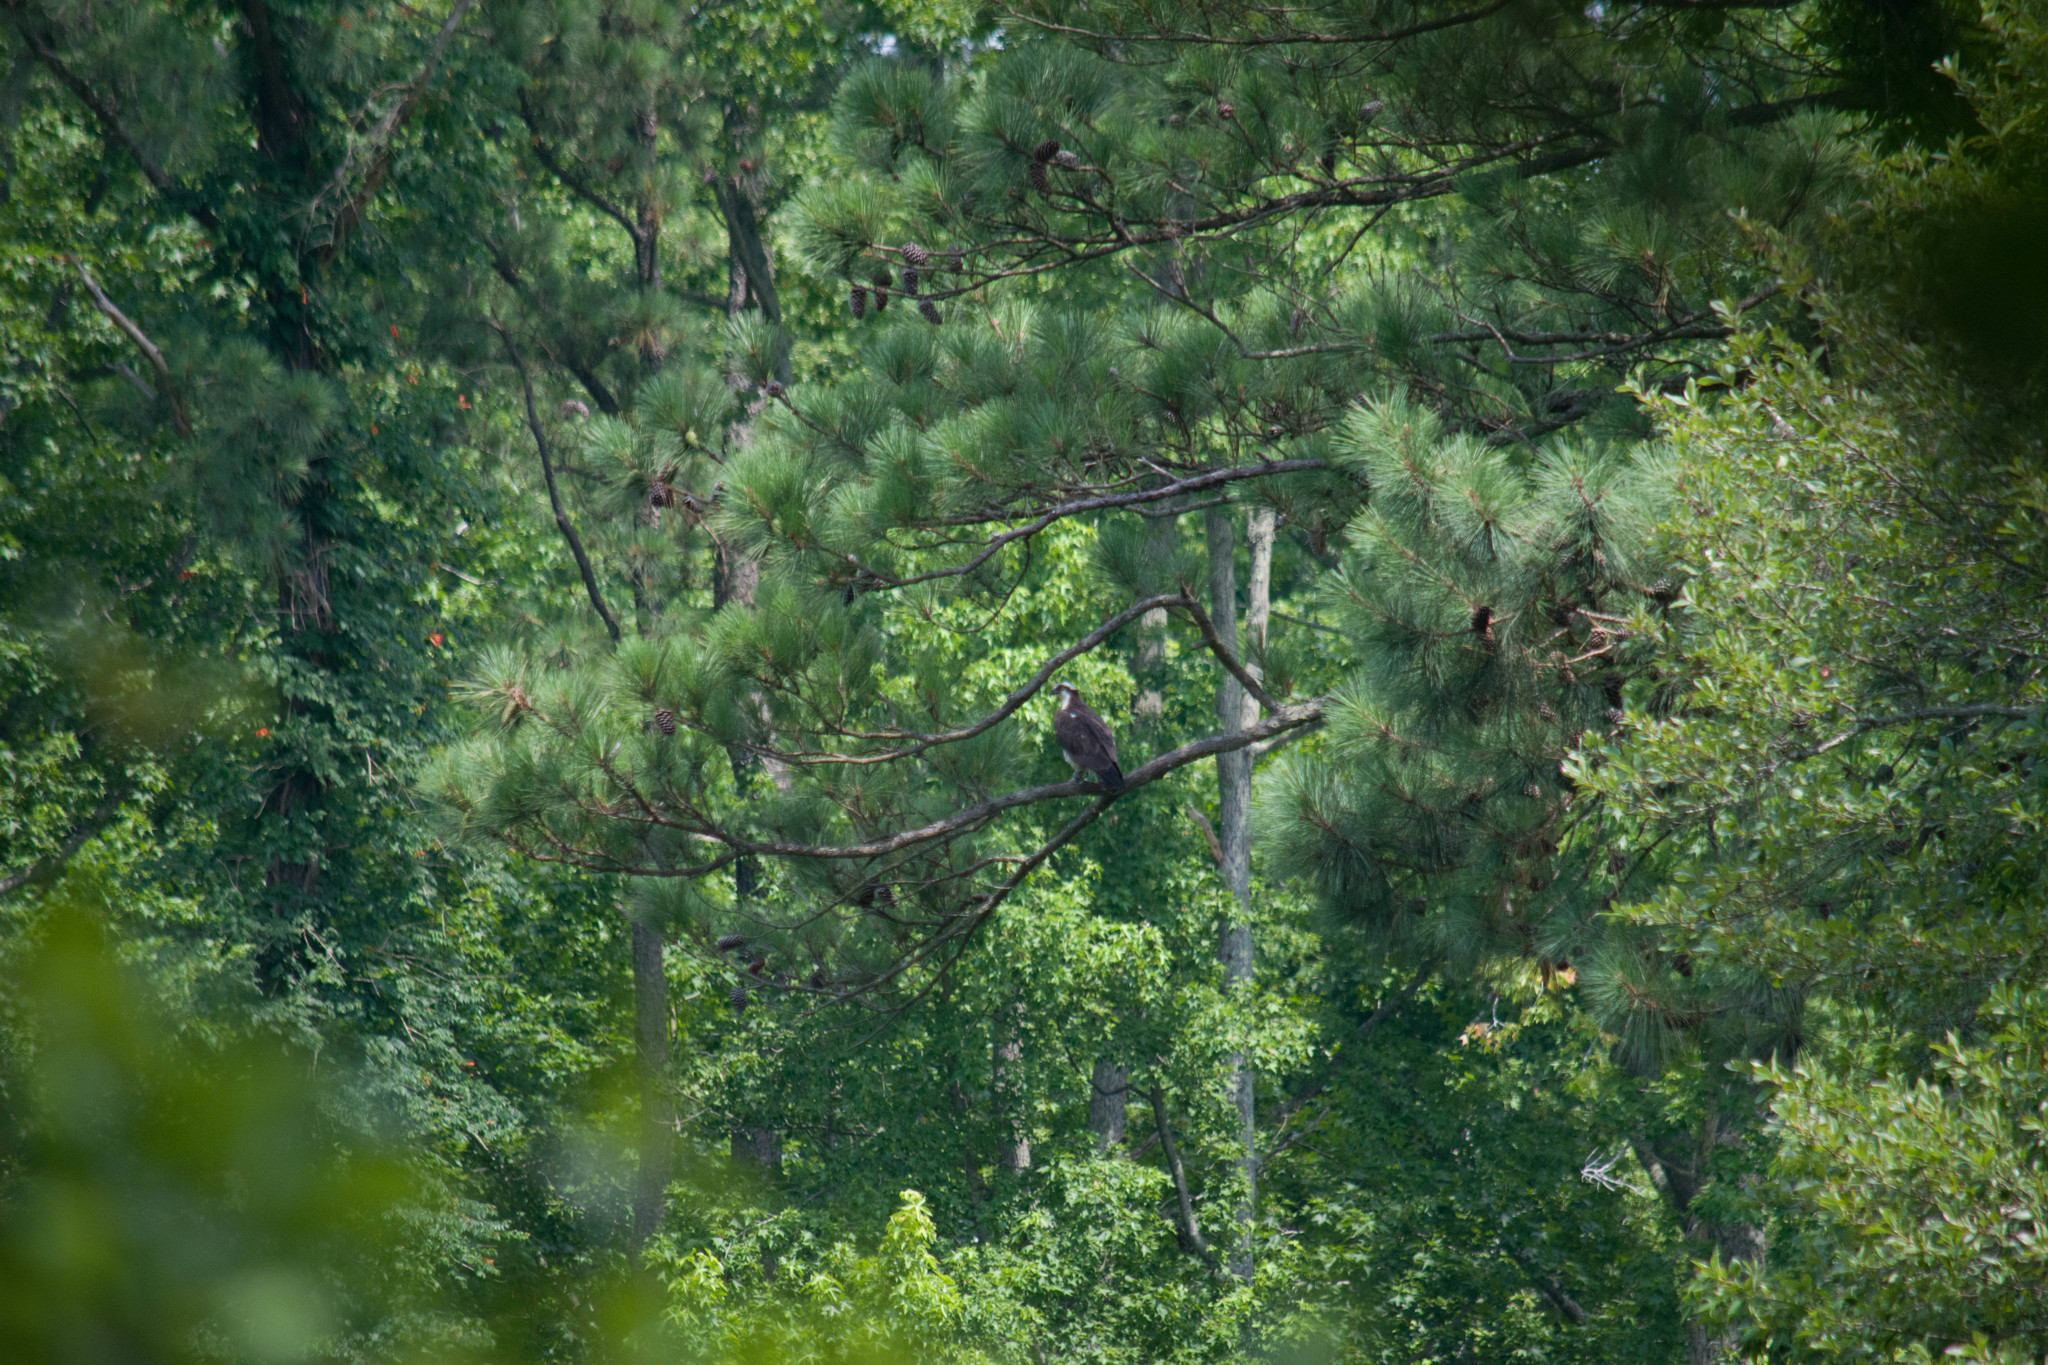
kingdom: Animalia
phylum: Chordata
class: Aves
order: Accipitriformes
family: Pandionidae
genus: Pandion
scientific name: Pandion haliaetus
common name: Osprey
